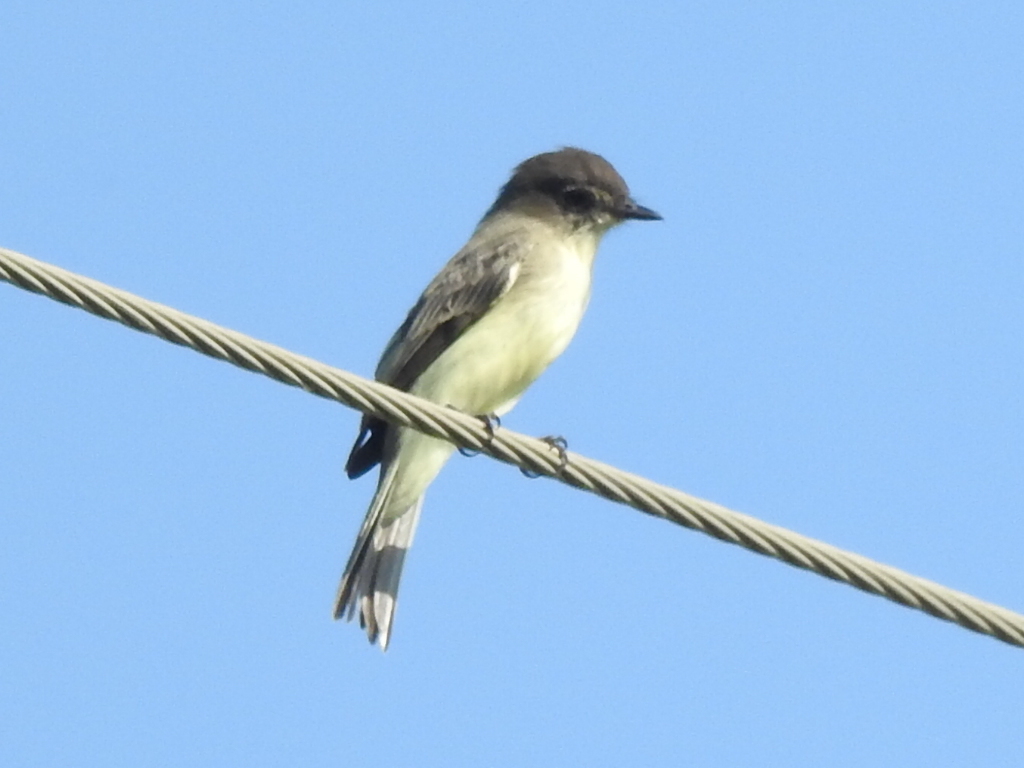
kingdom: Animalia
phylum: Chordata
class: Aves
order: Passeriformes
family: Tyrannidae
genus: Sayornis
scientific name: Sayornis phoebe
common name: Eastern phoebe
